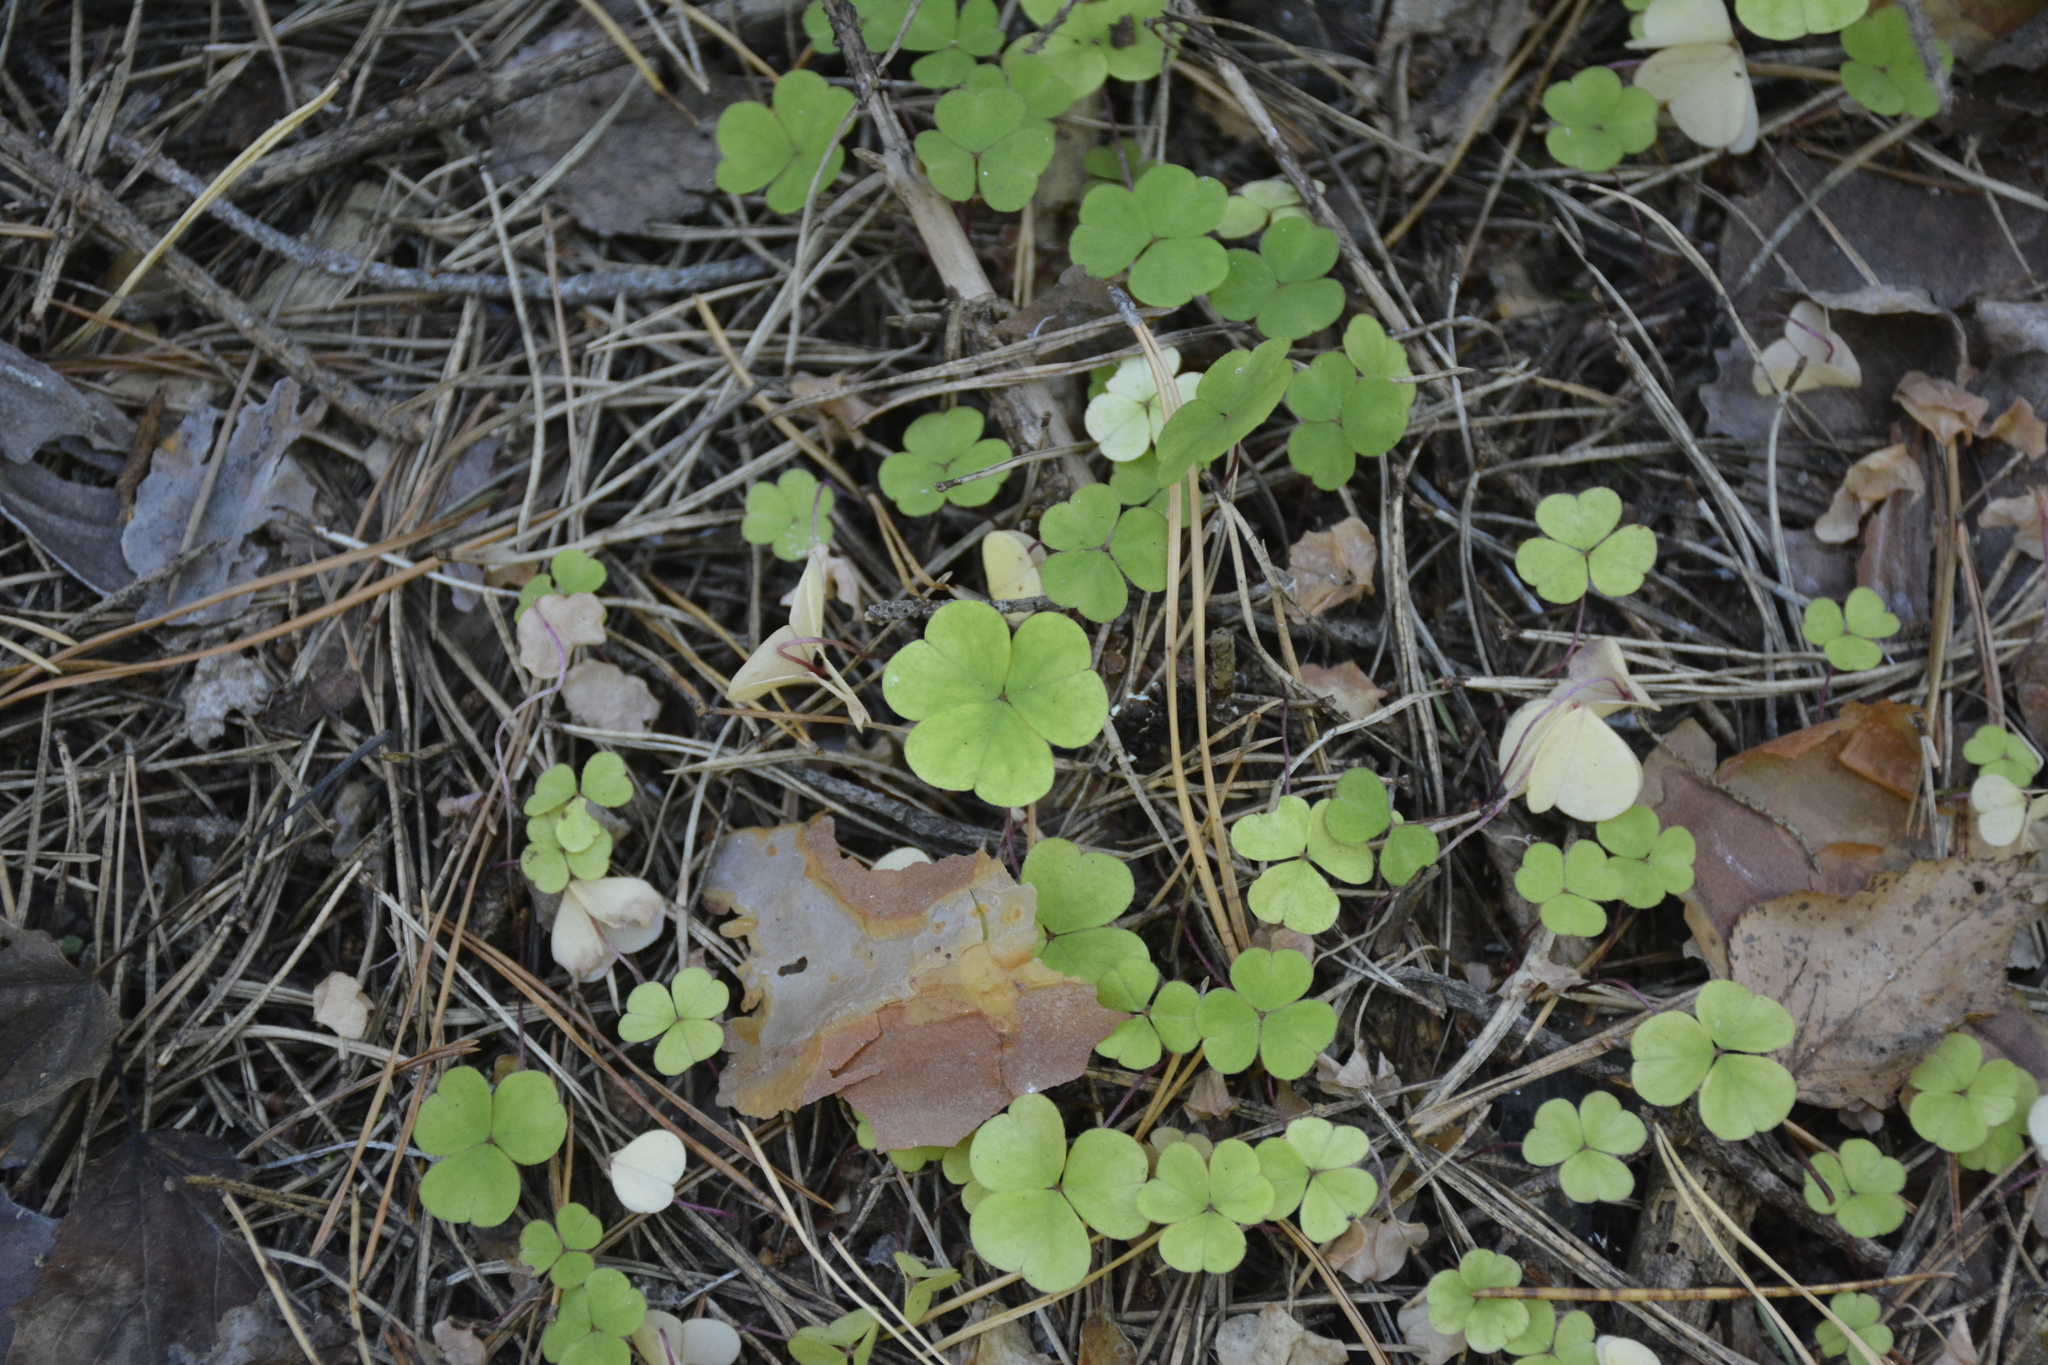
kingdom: Plantae
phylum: Tracheophyta
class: Magnoliopsida
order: Oxalidales
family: Oxalidaceae
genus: Oxalis
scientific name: Oxalis acetosella
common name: Wood-sorrel
